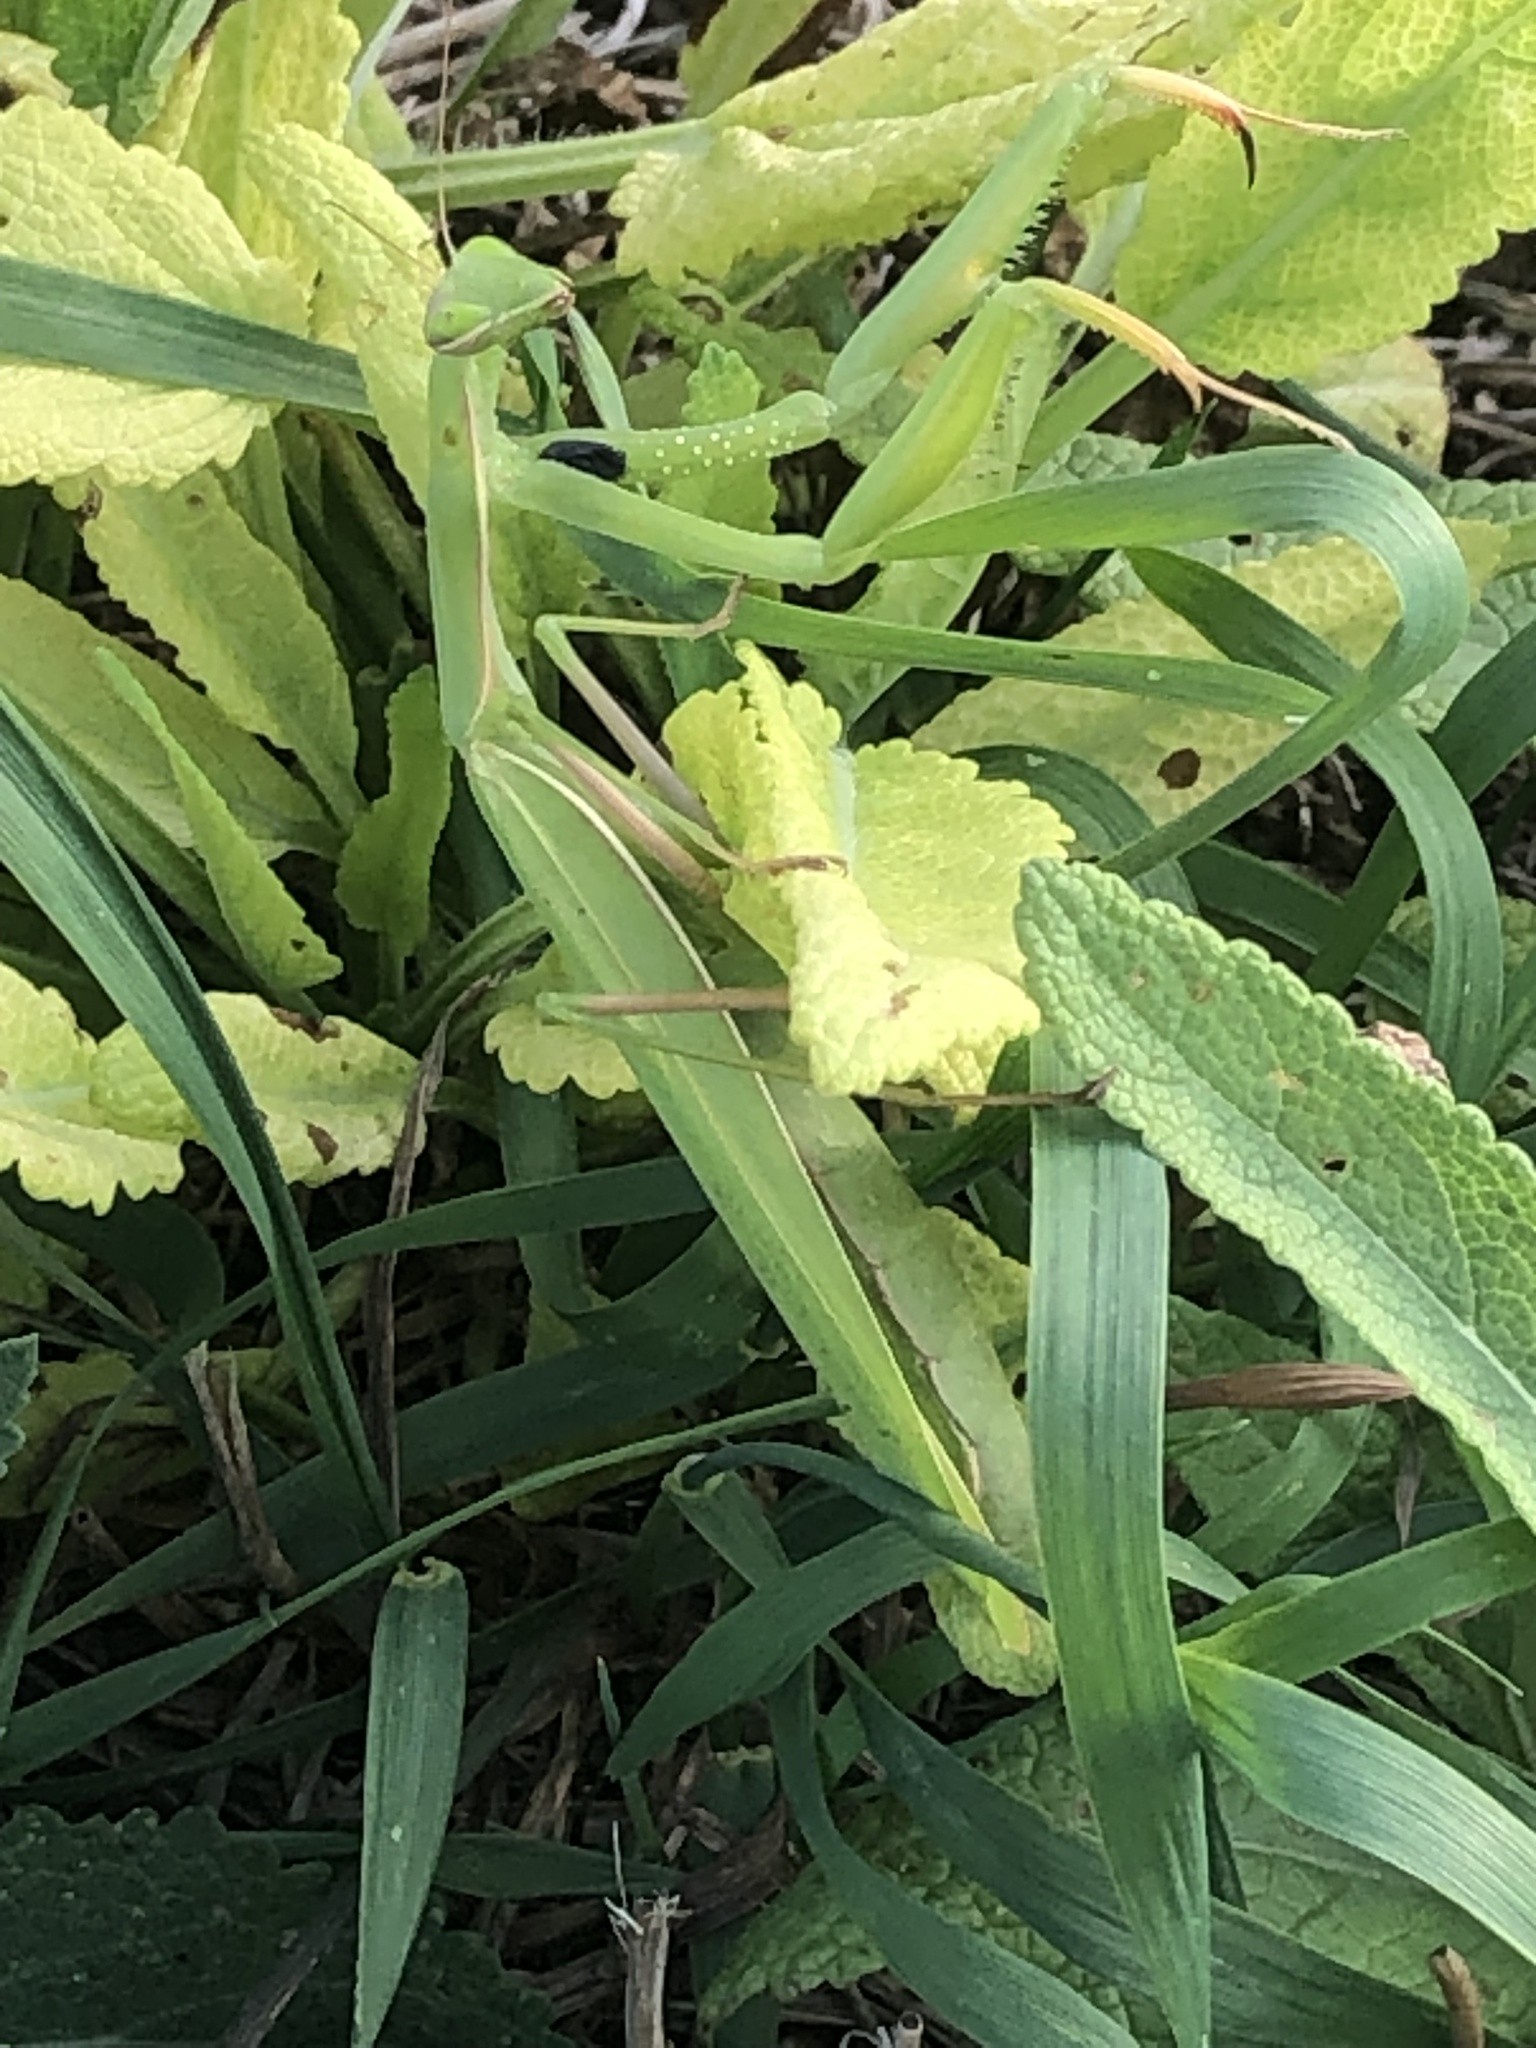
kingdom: Animalia
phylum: Arthropoda
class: Insecta
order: Mantodea
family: Mantidae
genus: Mantis
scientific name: Mantis religiosa
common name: Praying mantis
